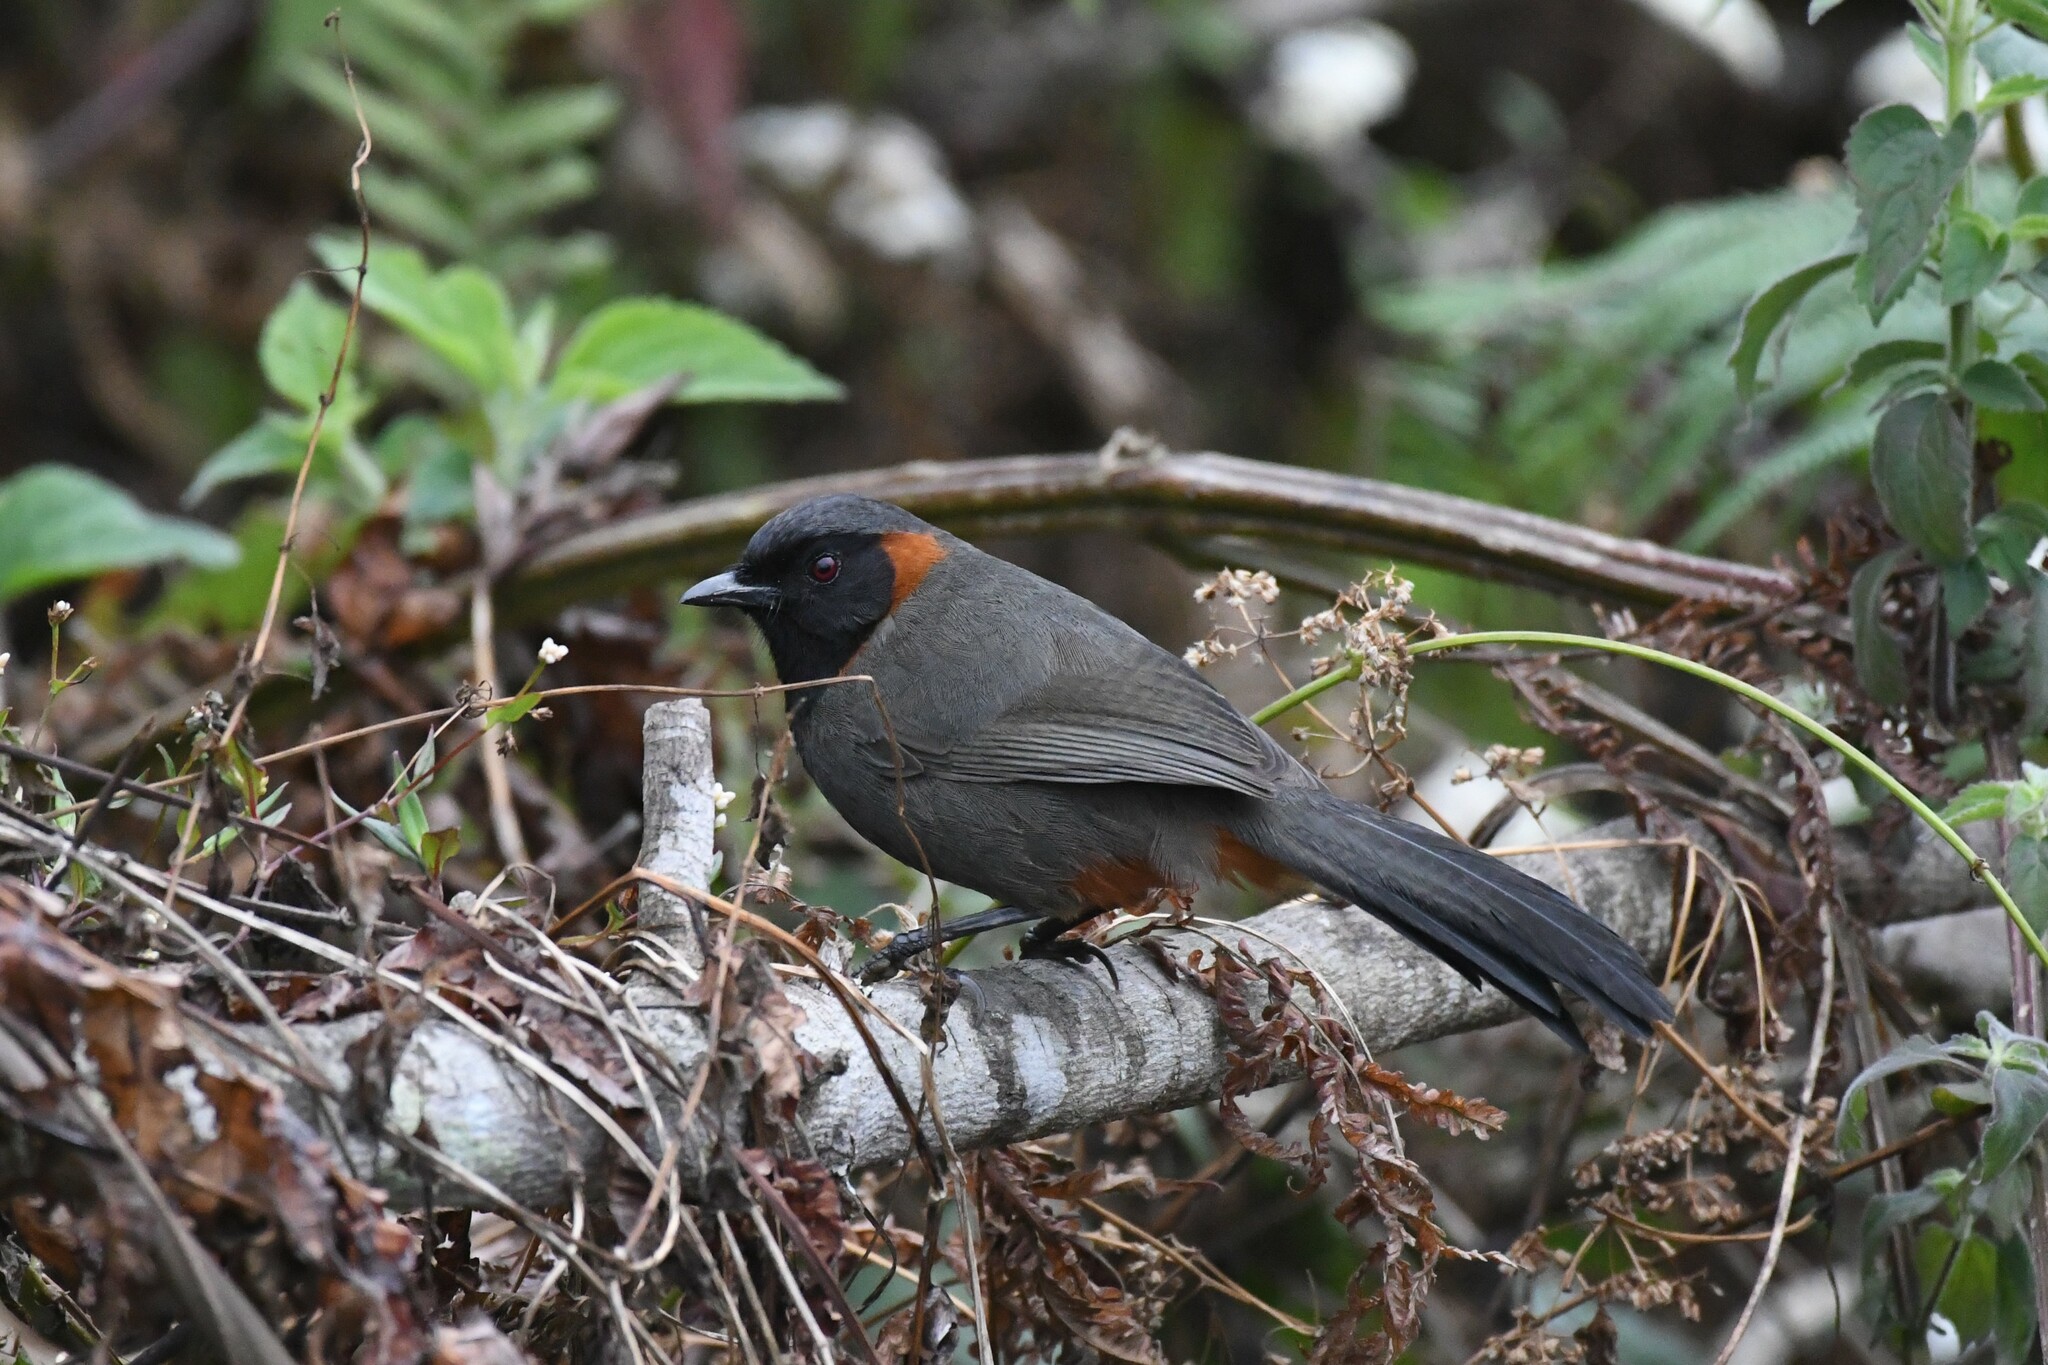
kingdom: Animalia
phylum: Chordata
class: Aves
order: Passeriformes
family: Leiothrichidae
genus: Garrulax
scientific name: Garrulax ruficollis
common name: Rufous-necked laughingthrush
